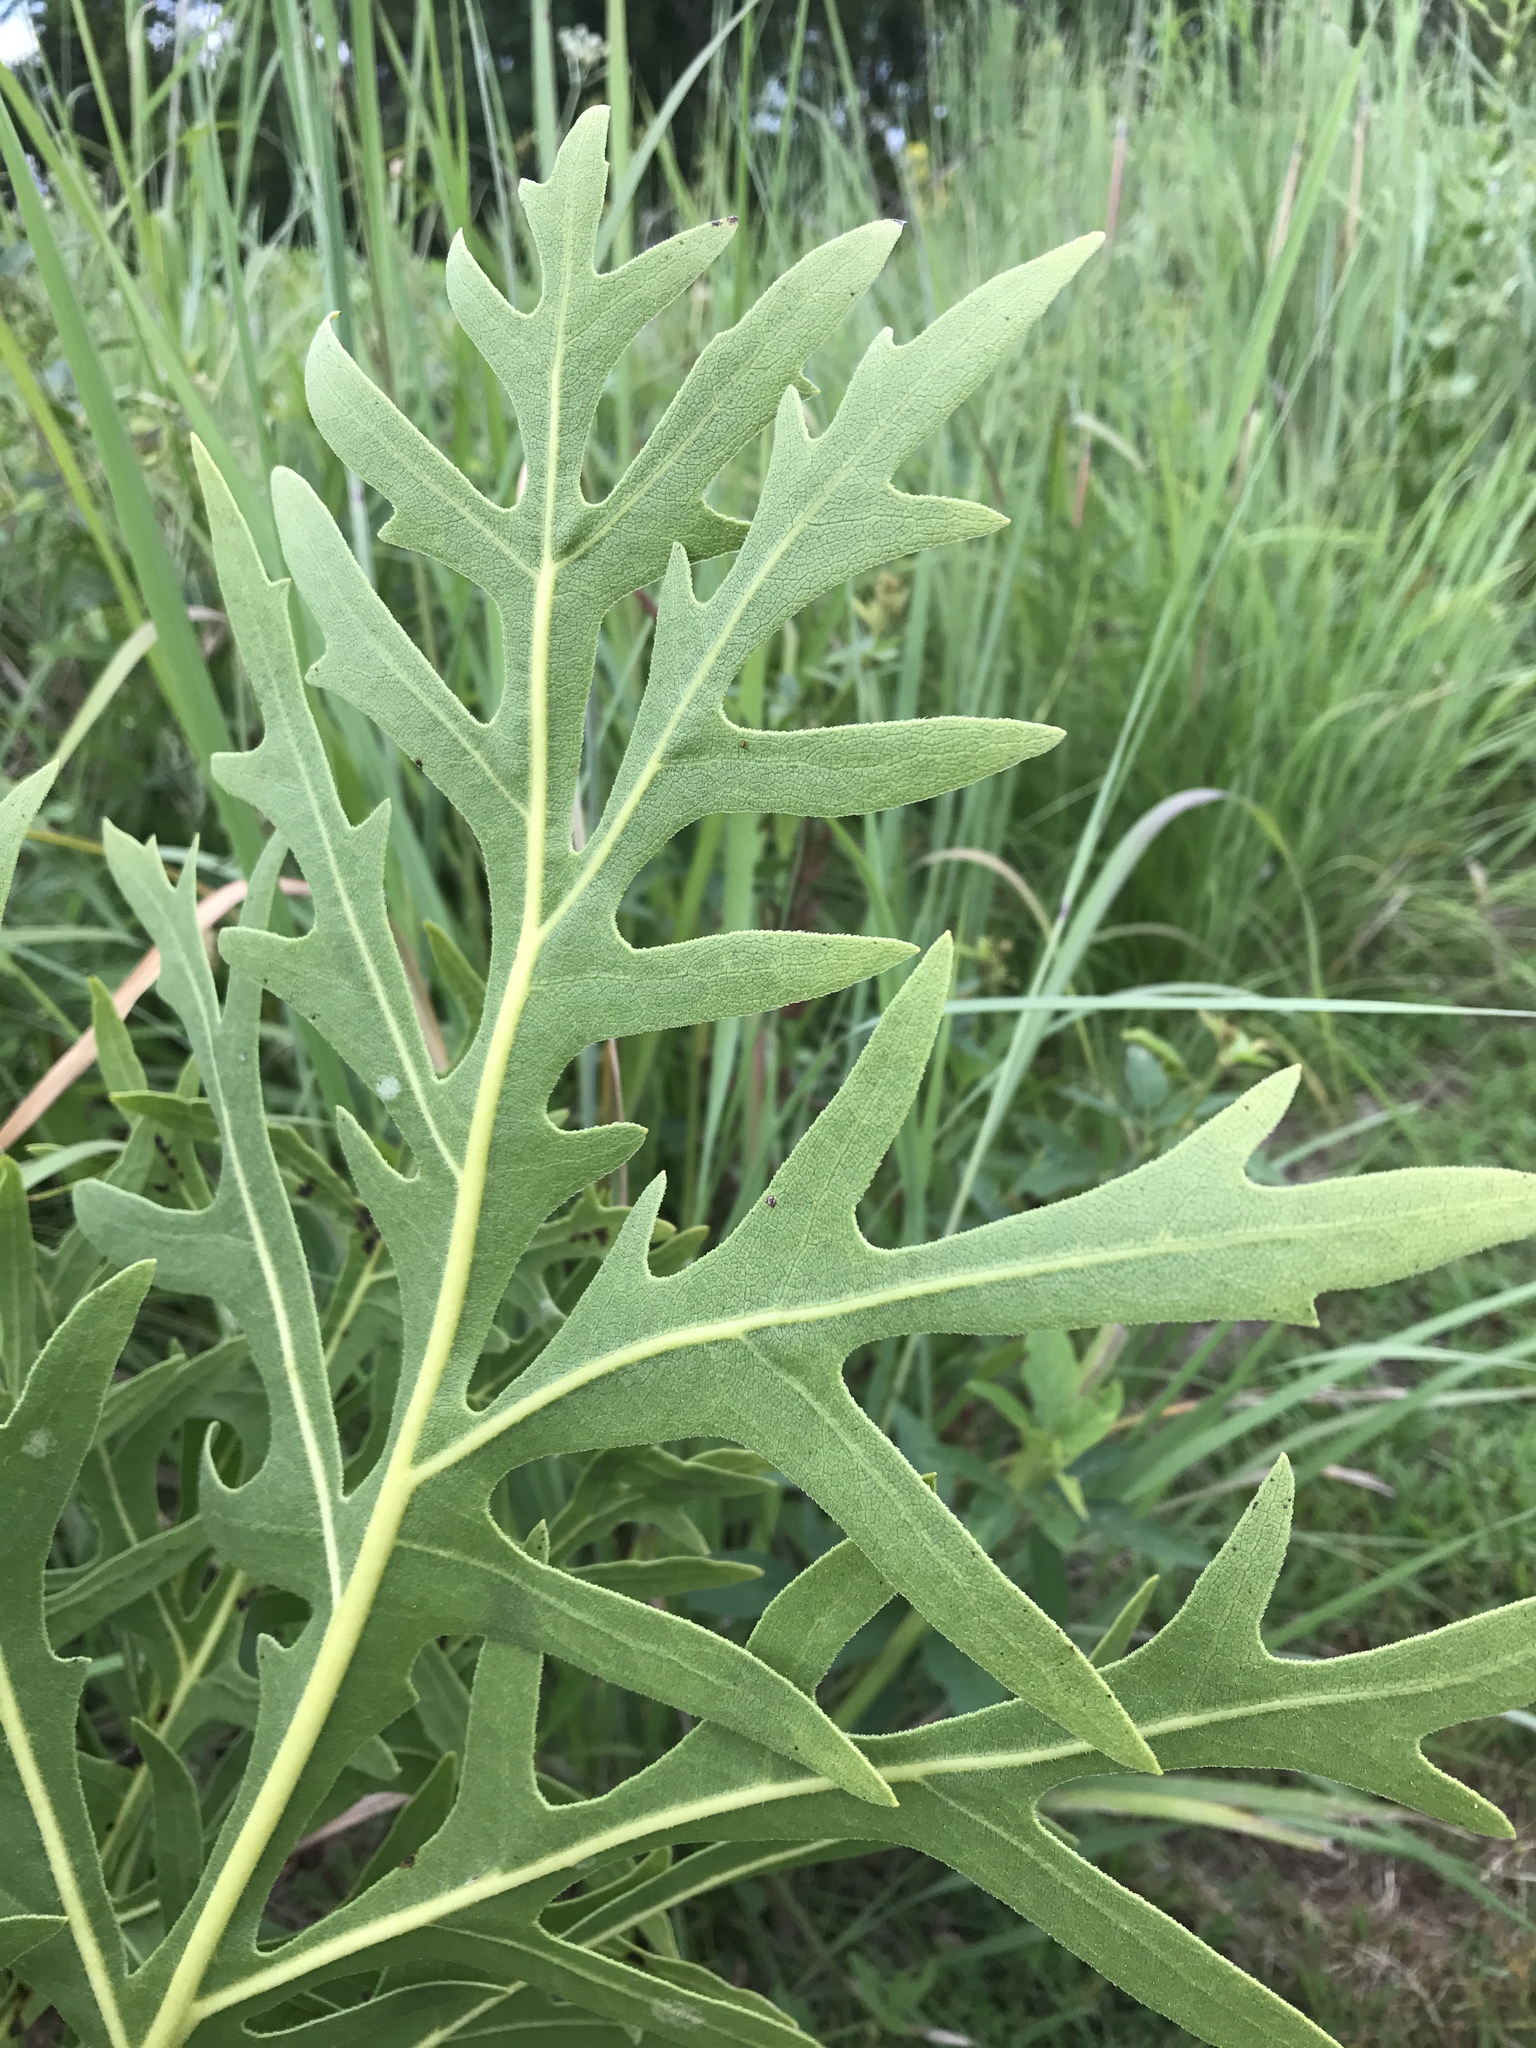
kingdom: Plantae
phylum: Tracheophyta
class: Magnoliopsida
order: Asterales
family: Asteraceae
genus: Silphium
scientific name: Silphium laciniatum
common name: Polarplant
